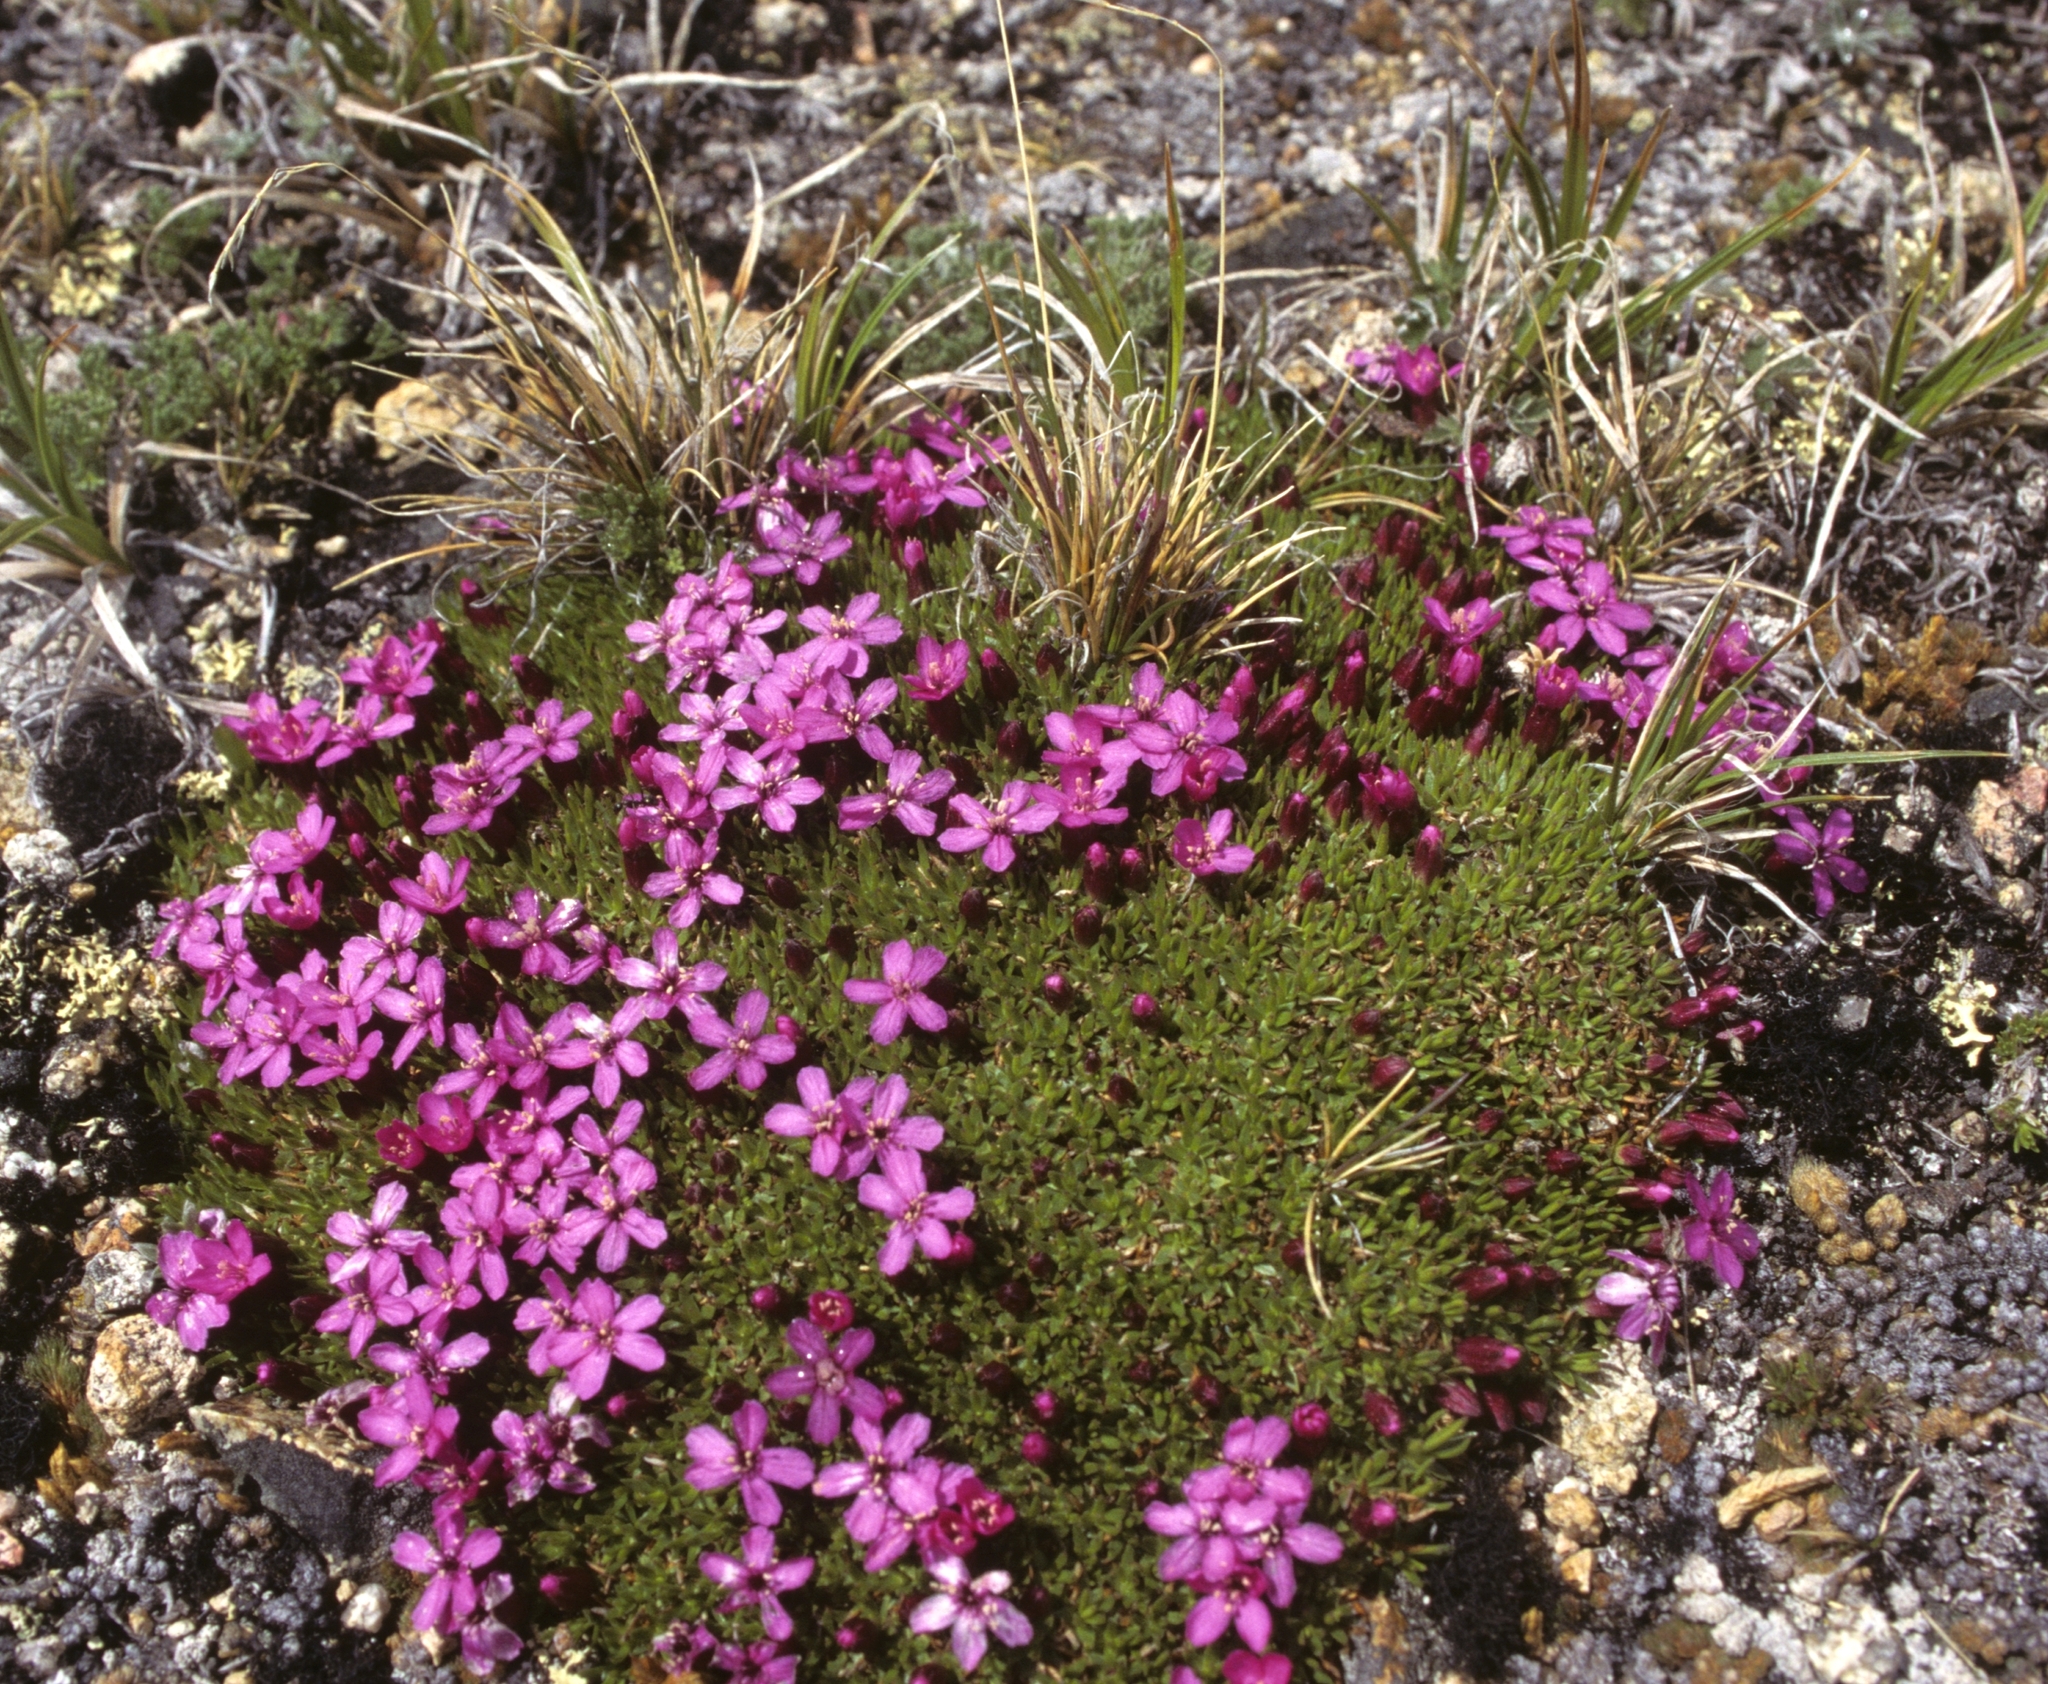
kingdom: Plantae
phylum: Tracheophyta
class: Magnoliopsida
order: Caryophyllales
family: Caryophyllaceae
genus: Silene
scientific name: Silene acaulis
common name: Moss campion
